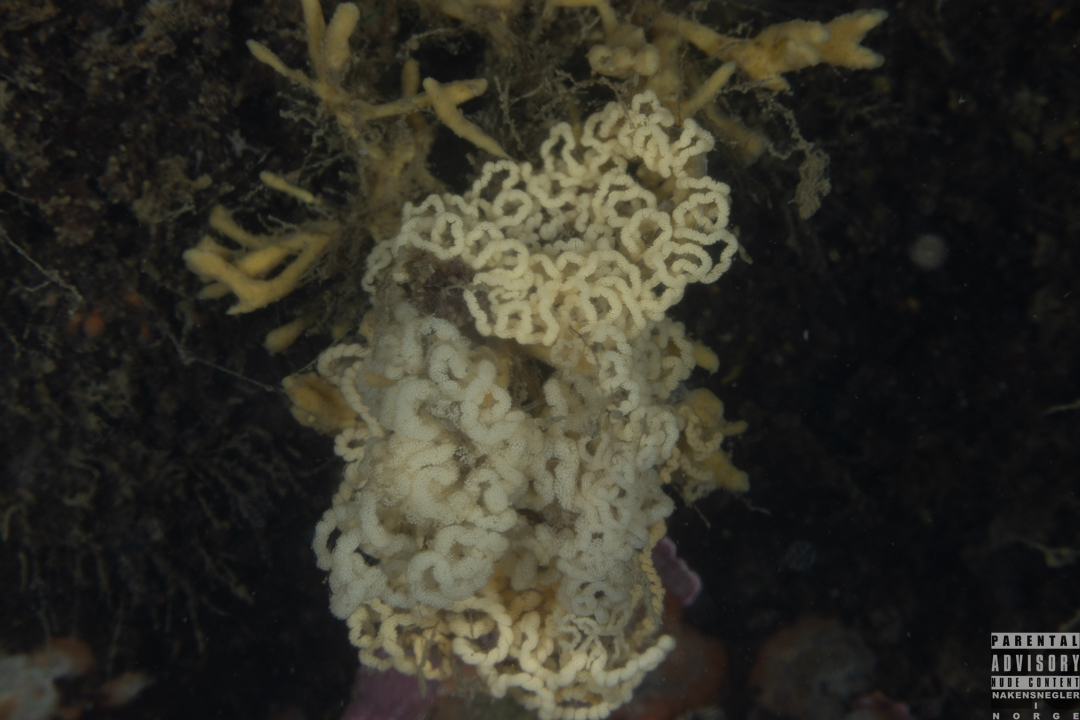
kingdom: Animalia
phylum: Mollusca
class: Gastropoda
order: Nudibranchia
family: Dendronotidae
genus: Dendronotus
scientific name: Dendronotus lacteus
